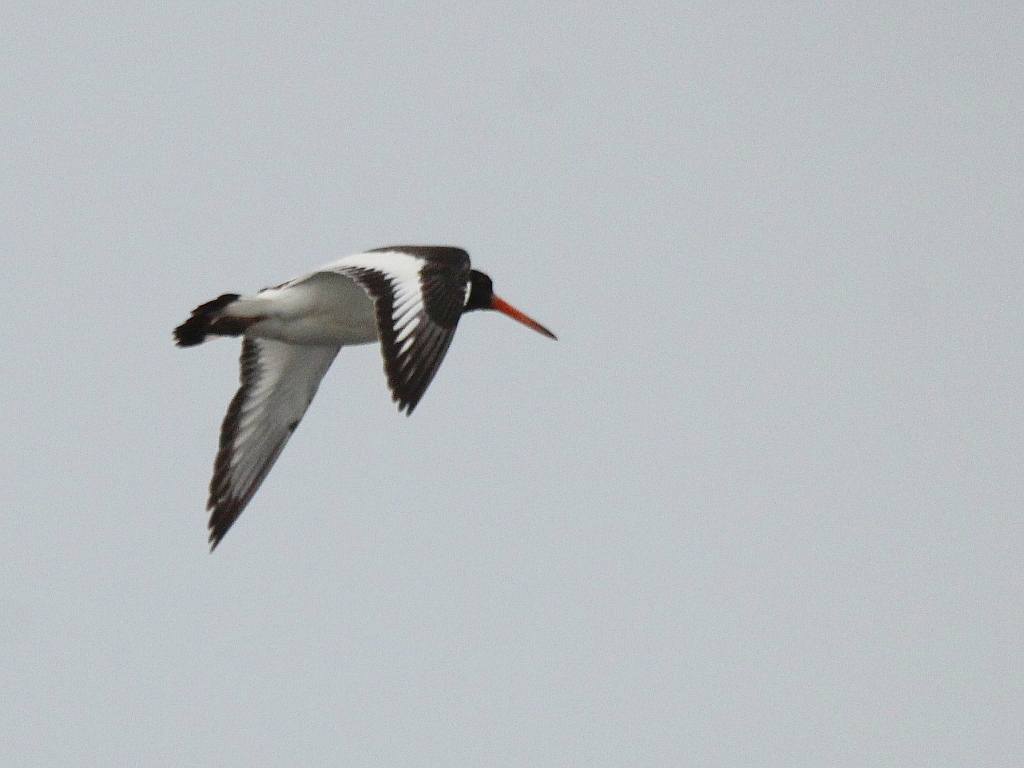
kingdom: Animalia
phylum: Chordata
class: Aves
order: Charadriiformes
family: Haematopodidae
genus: Haematopus
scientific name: Haematopus ostralegus
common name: Eurasian oystercatcher
